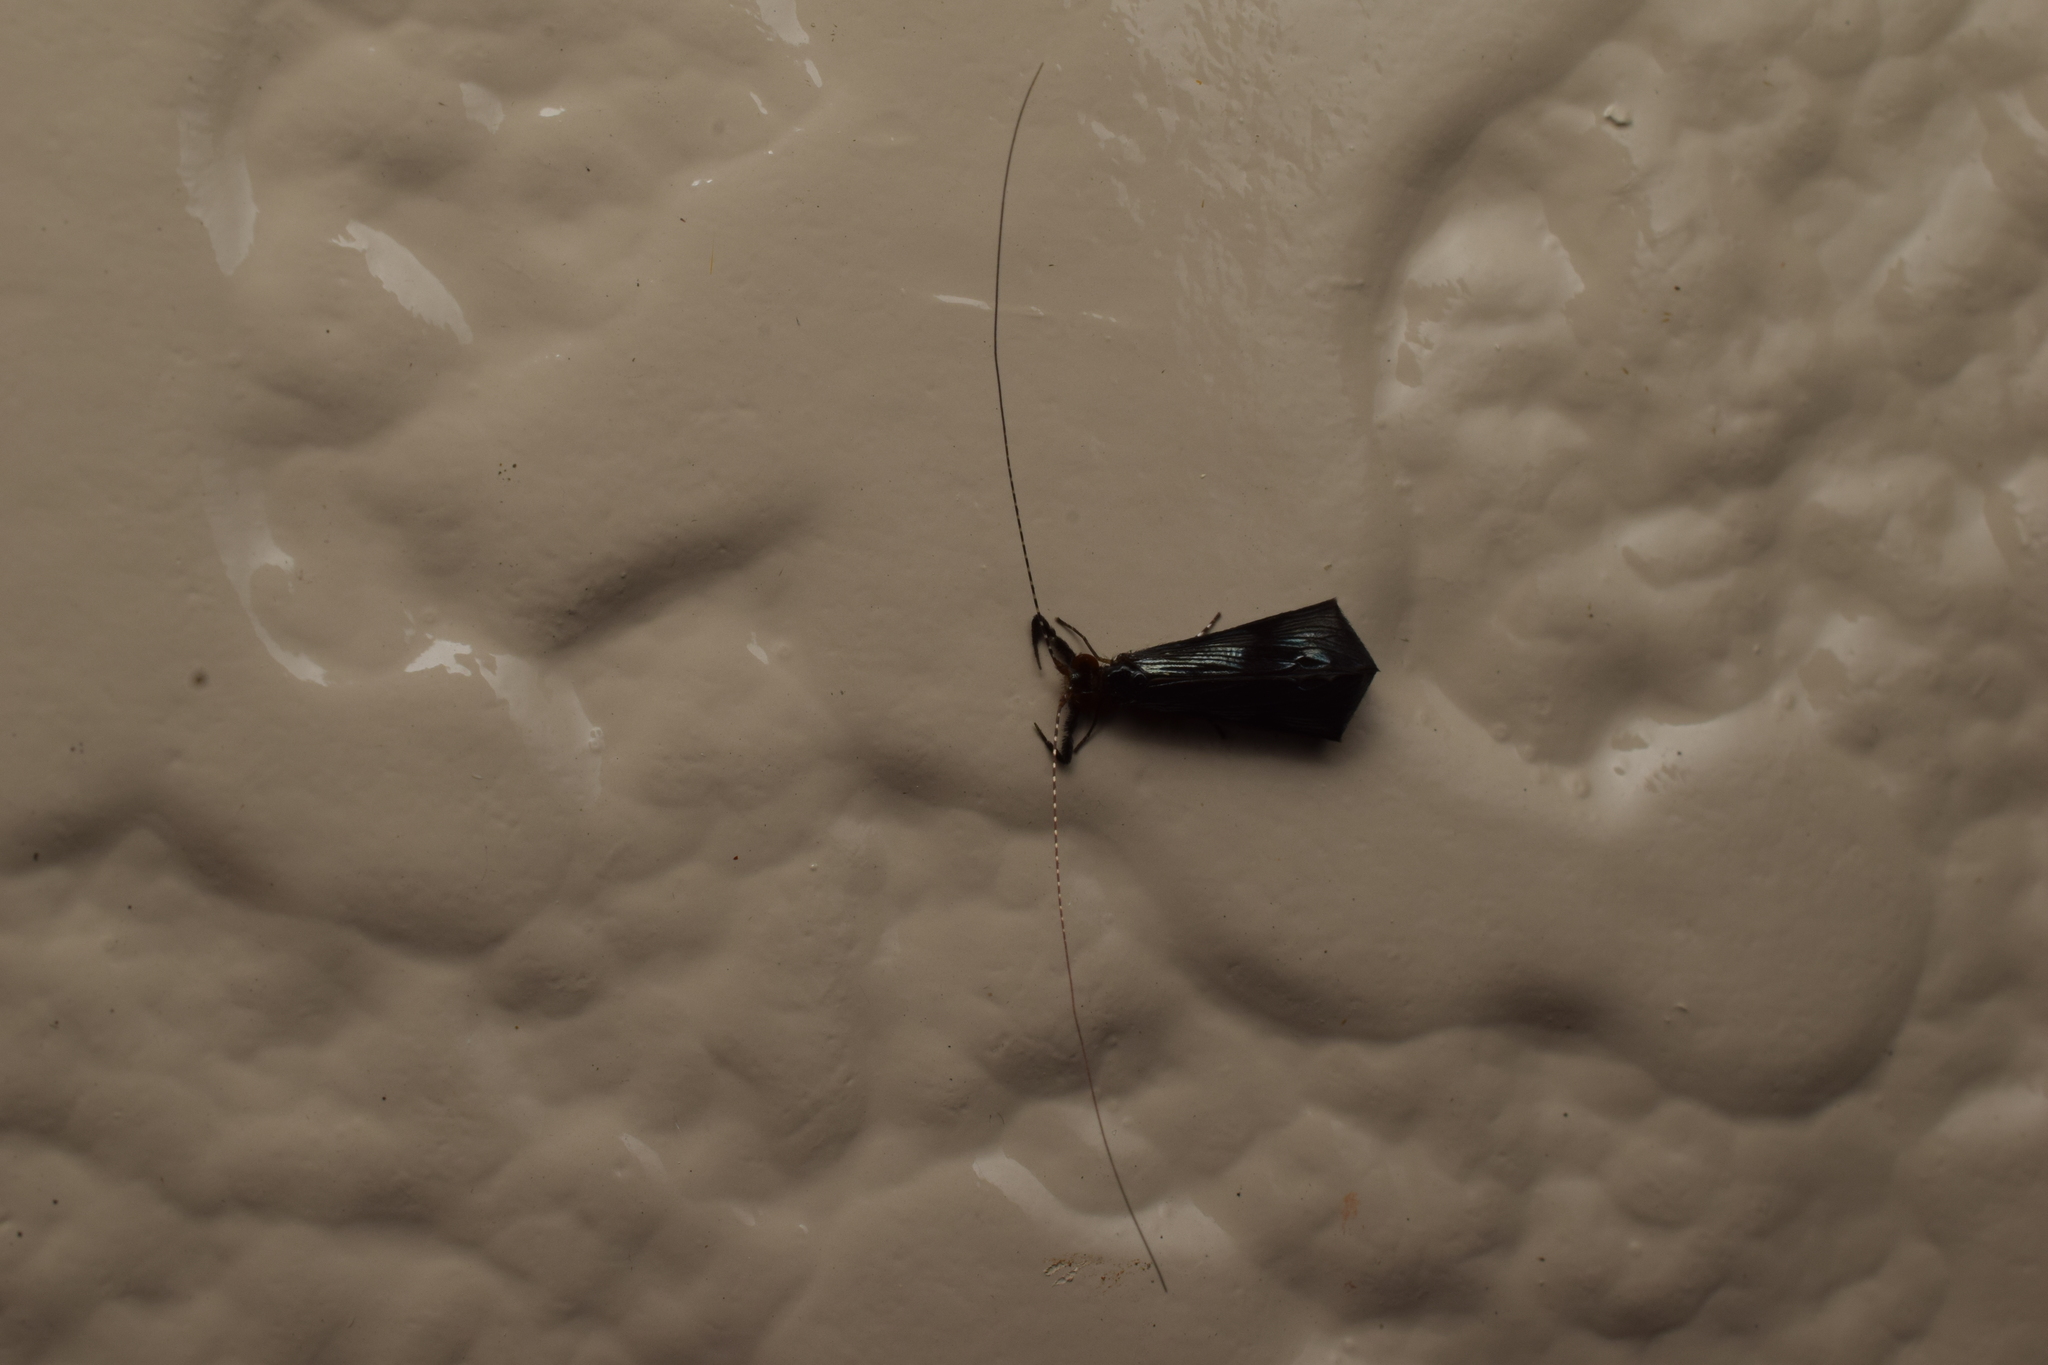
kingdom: Animalia
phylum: Arthropoda
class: Insecta
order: Trichoptera
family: Leptoceridae
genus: Mystacides
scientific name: Mystacides azureus
